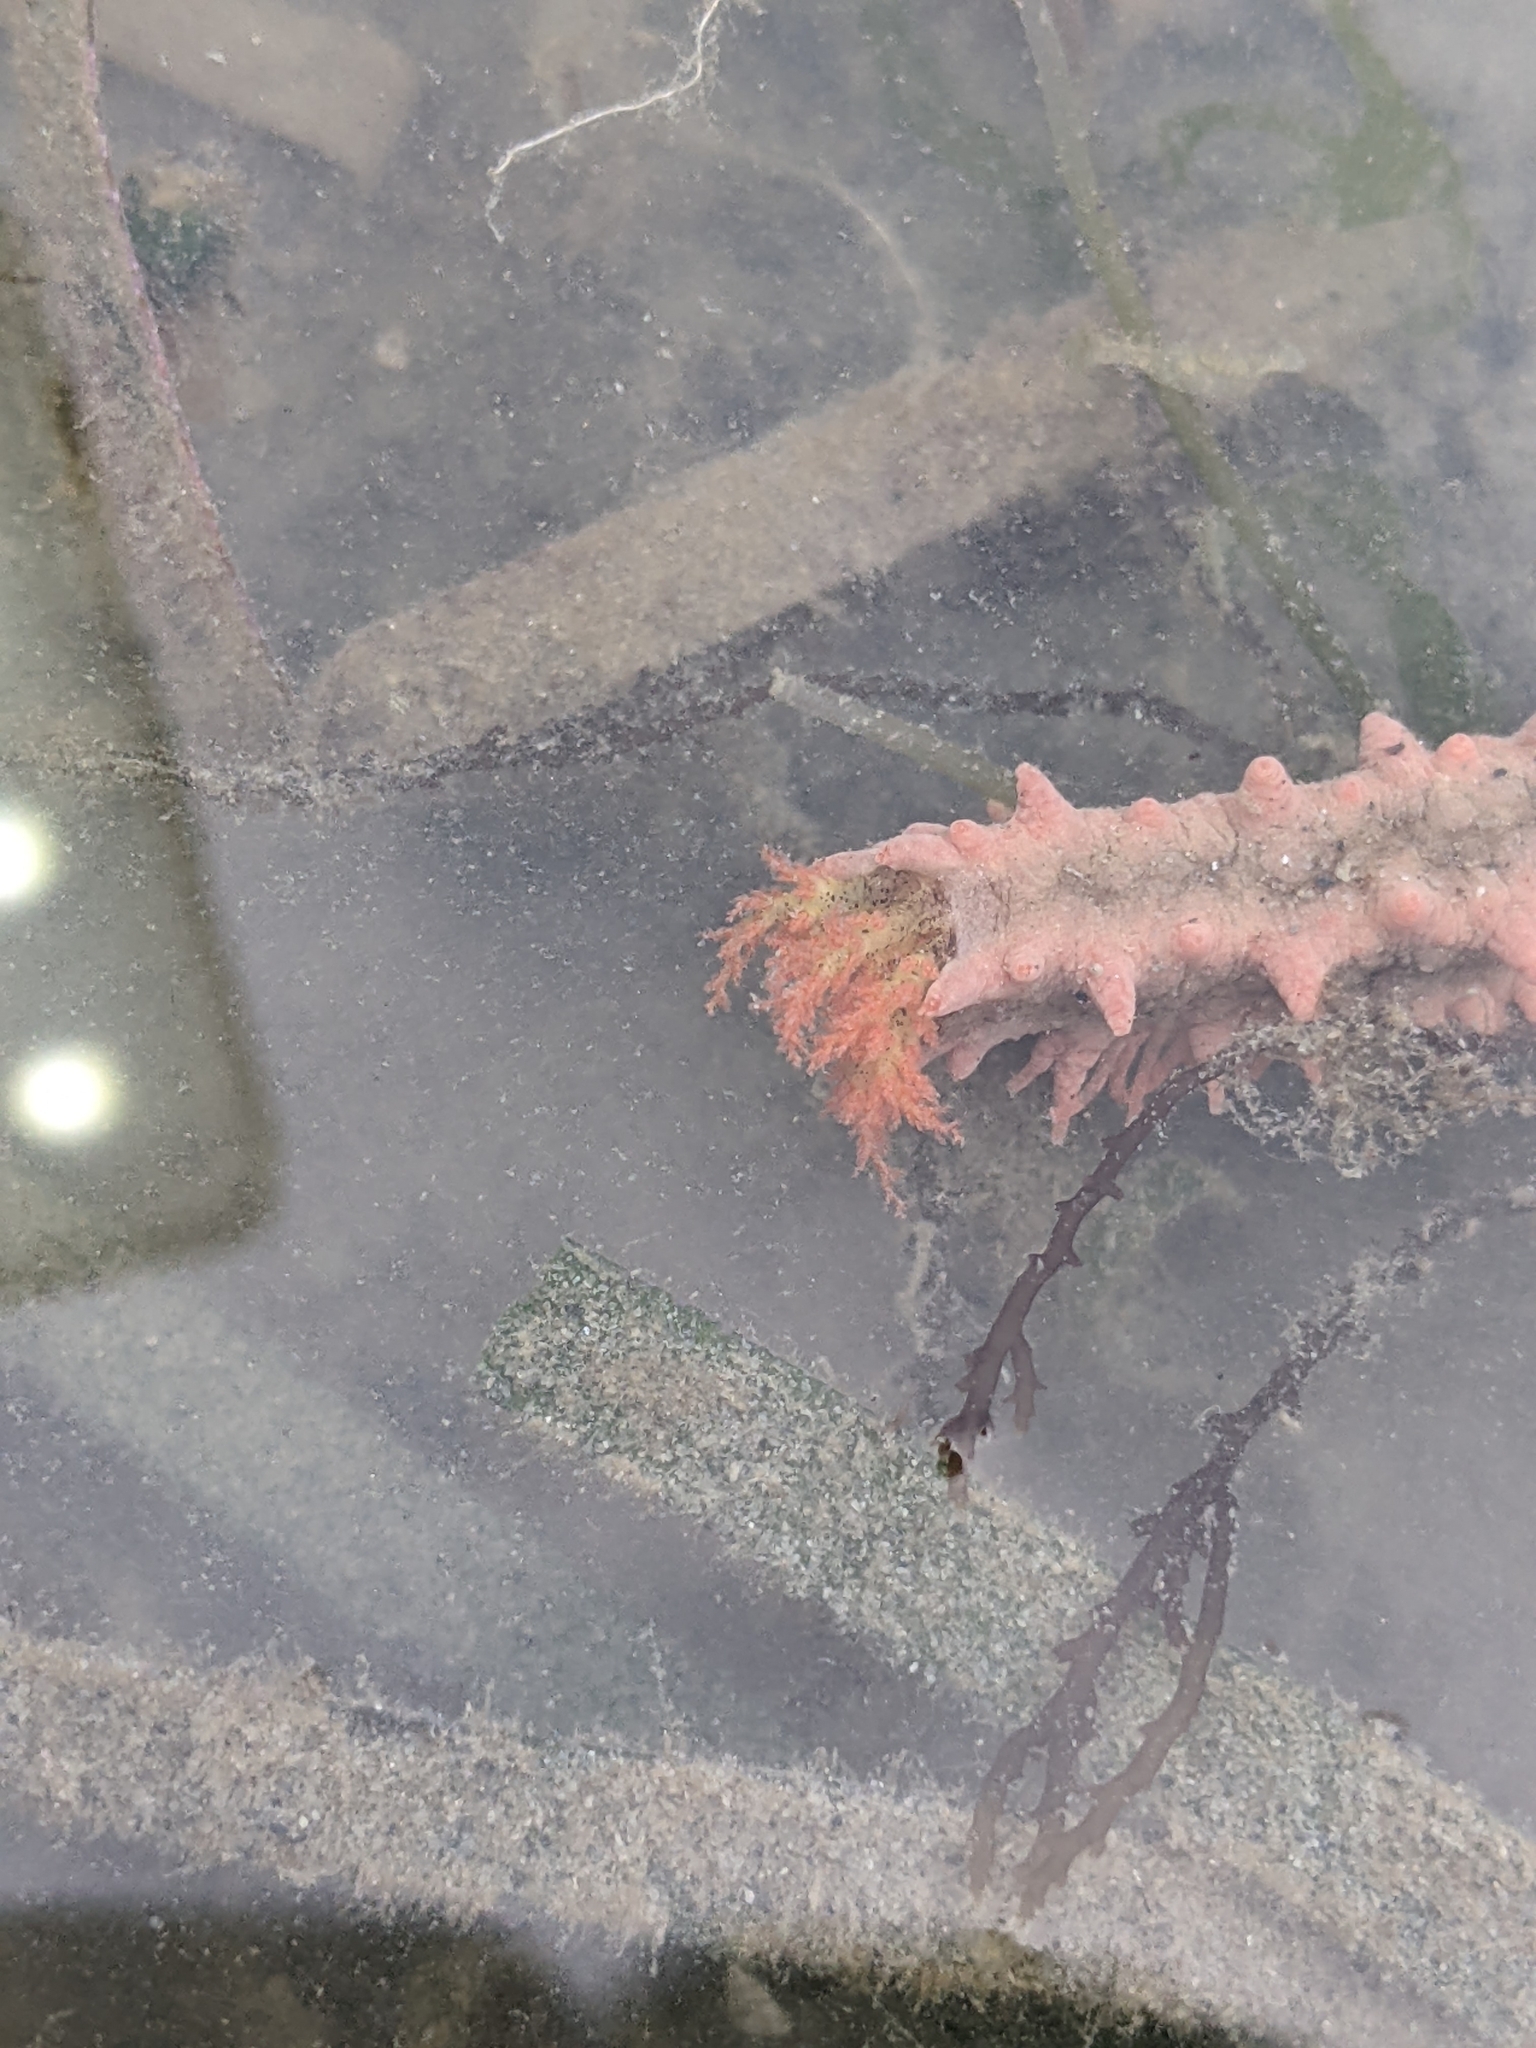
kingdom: Animalia
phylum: Echinodermata
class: Holothuroidea
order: Dendrochirotida
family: Cucumariidae
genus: Colochirus
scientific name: Colochirus quadrangularis
